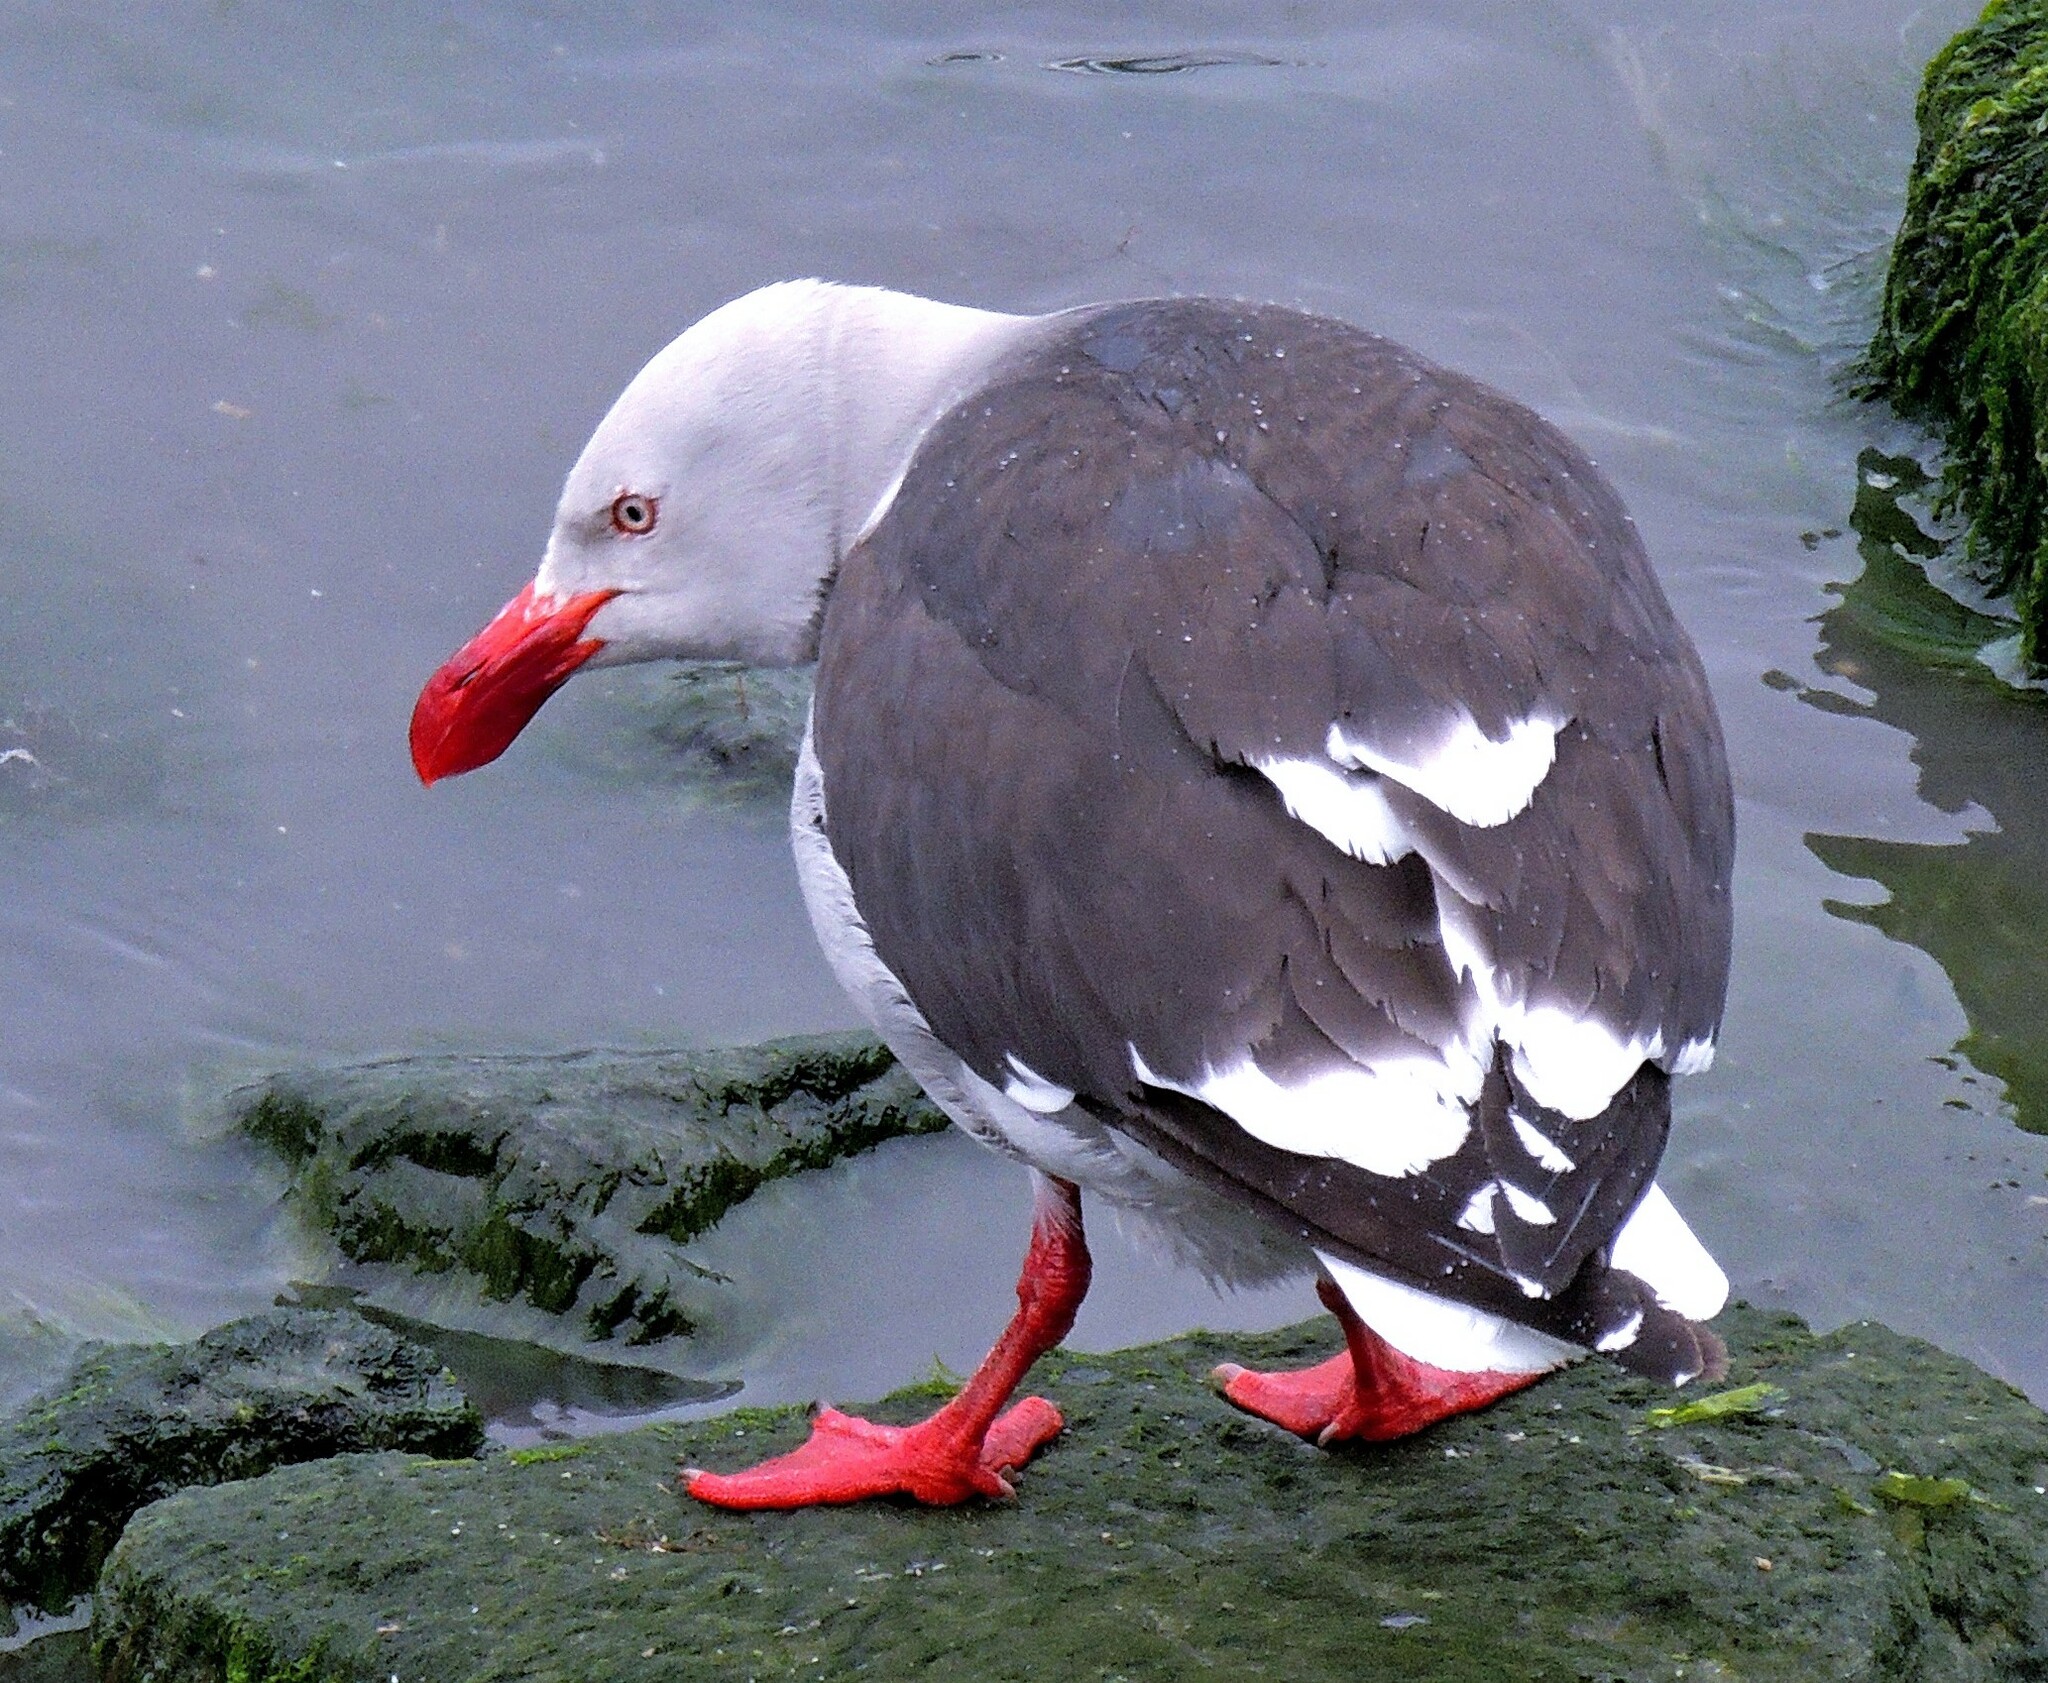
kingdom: Animalia
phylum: Chordata
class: Aves
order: Charadriiformes
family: Laridae
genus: Leucophaeus
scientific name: Leucophaeus scoresbii
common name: Dolphin gull
